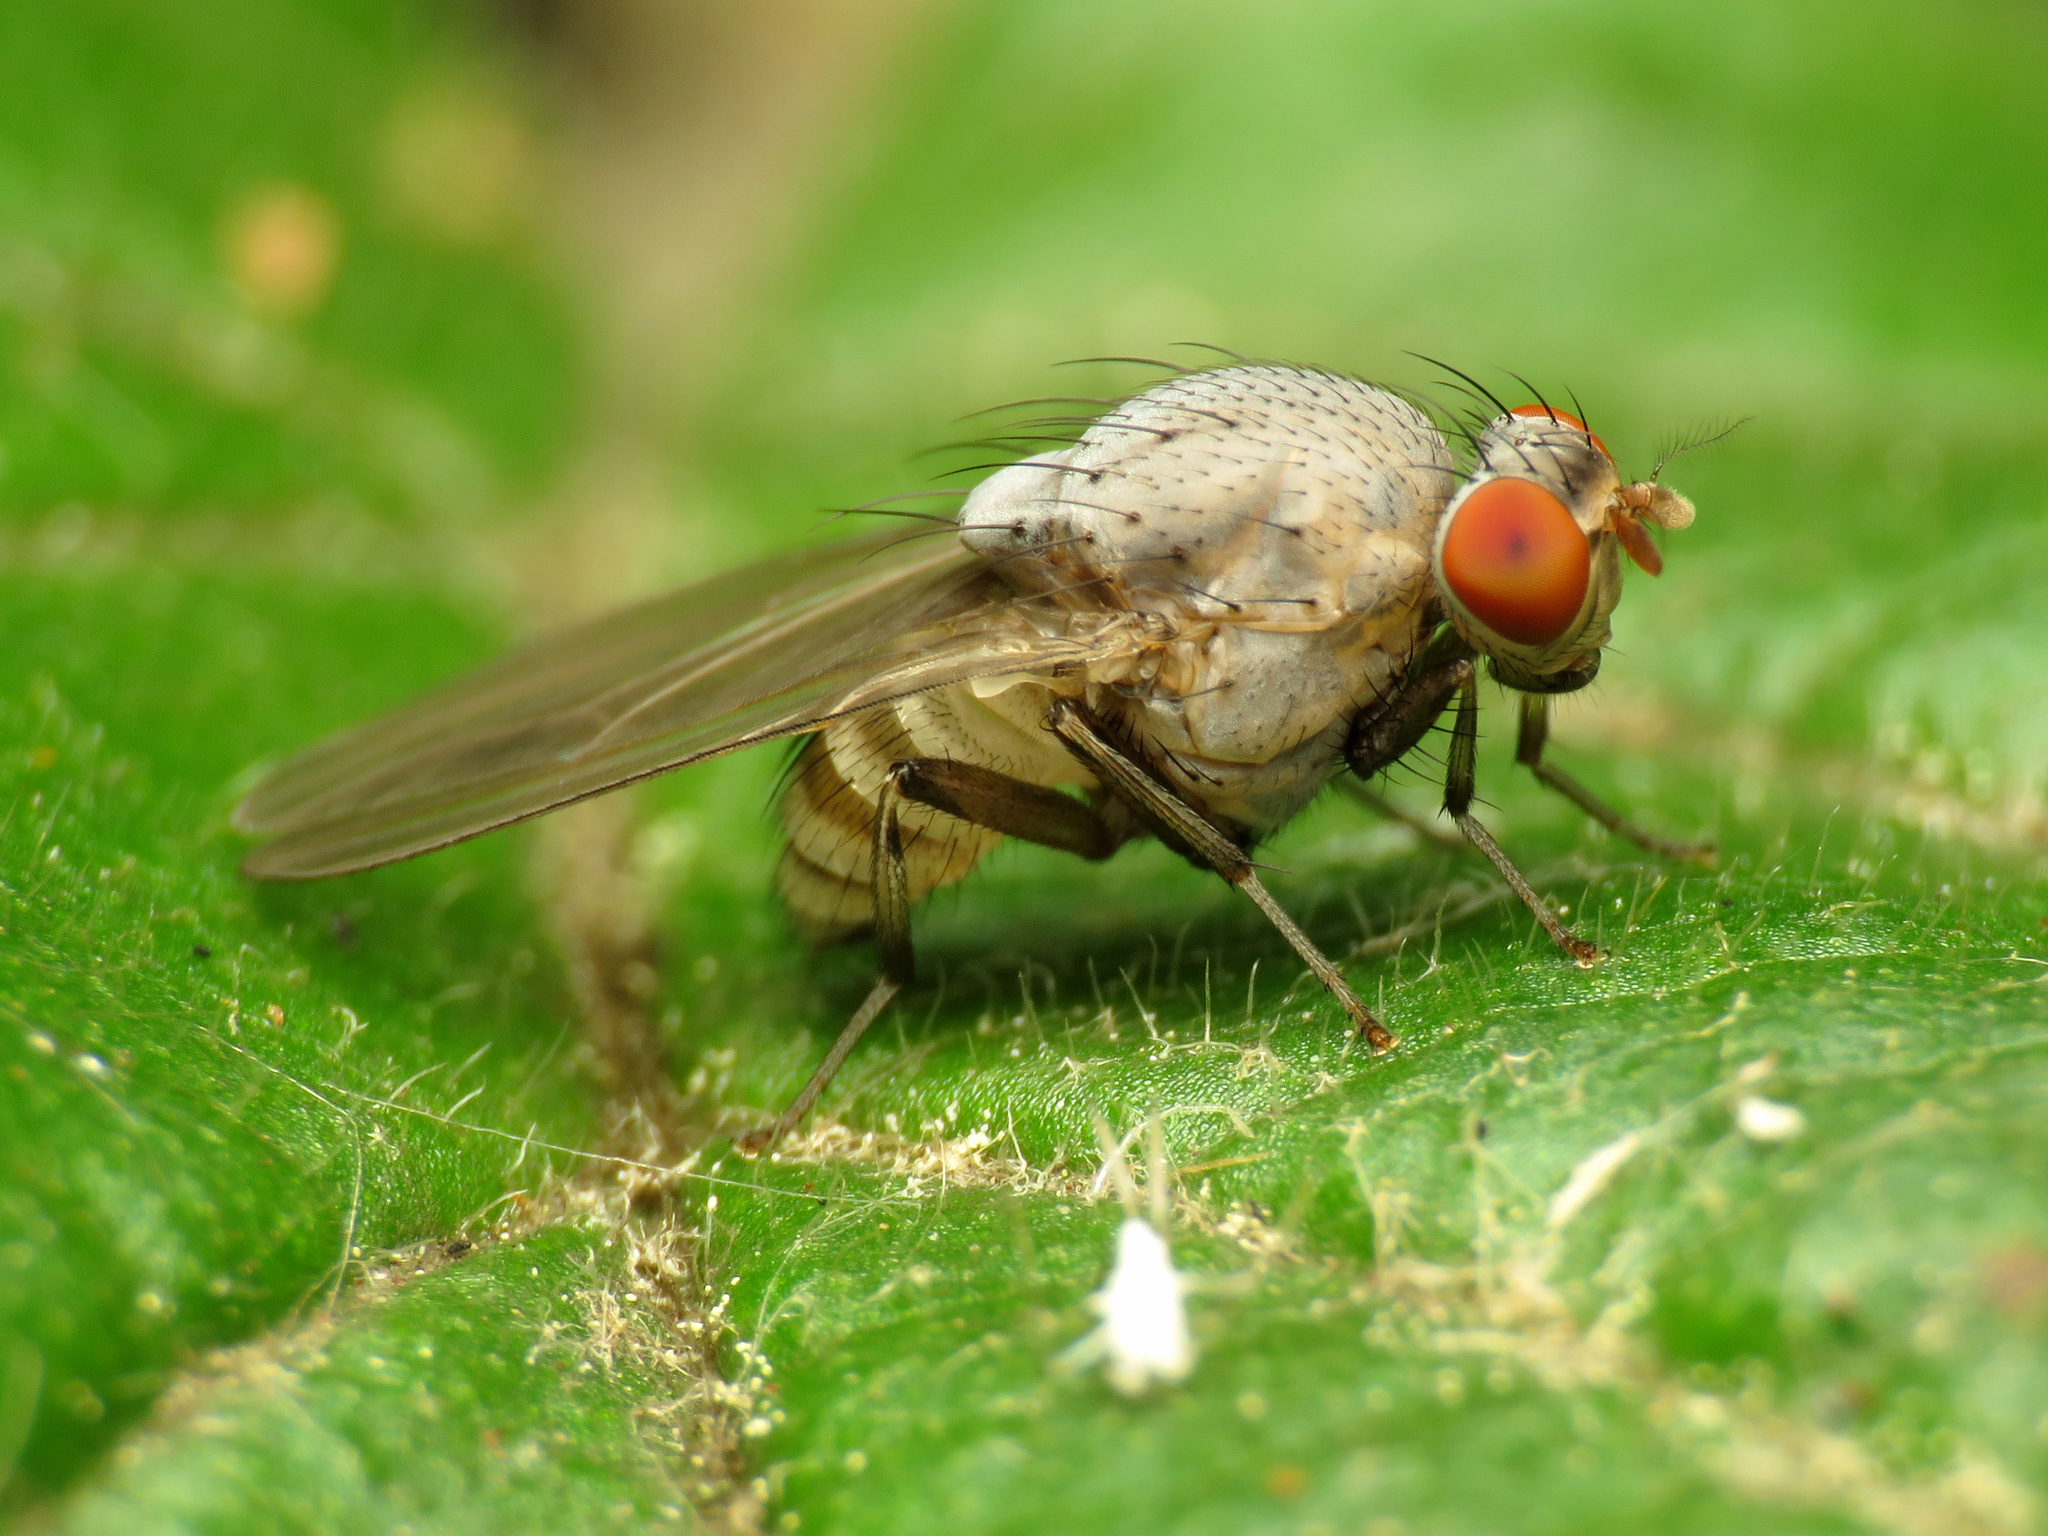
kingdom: Animalia
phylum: Arthropoda
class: Insecta
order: Diptera
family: Lauxaniidae
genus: Minettia
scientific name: Minettia magna
